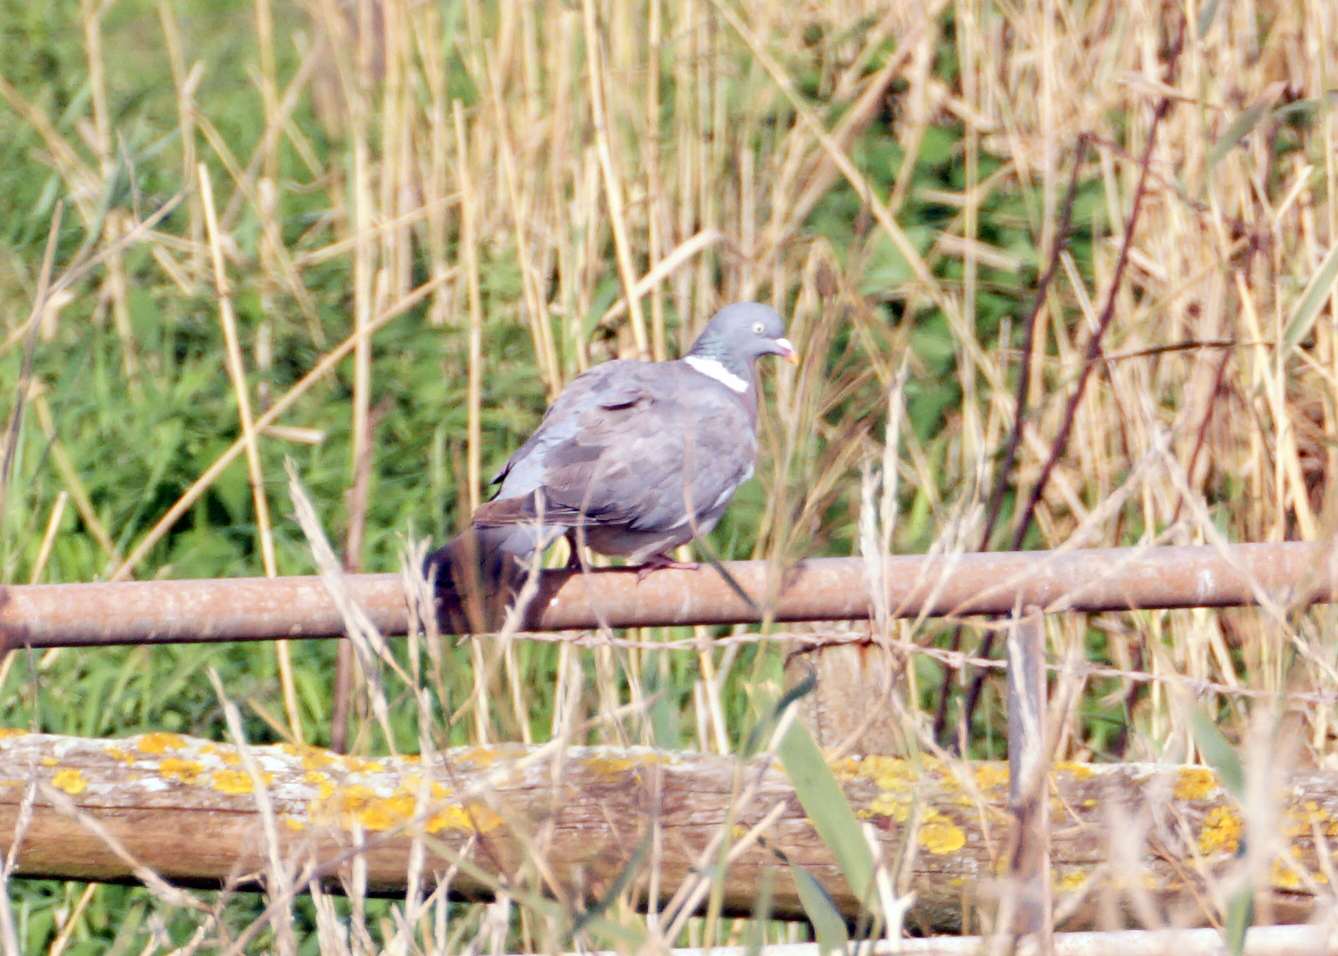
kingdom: Animalia
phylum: Chordata
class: Aves
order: Columbiformes
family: Columbidae
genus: Columba
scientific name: Columba palumbus
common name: Common wood pigeon
